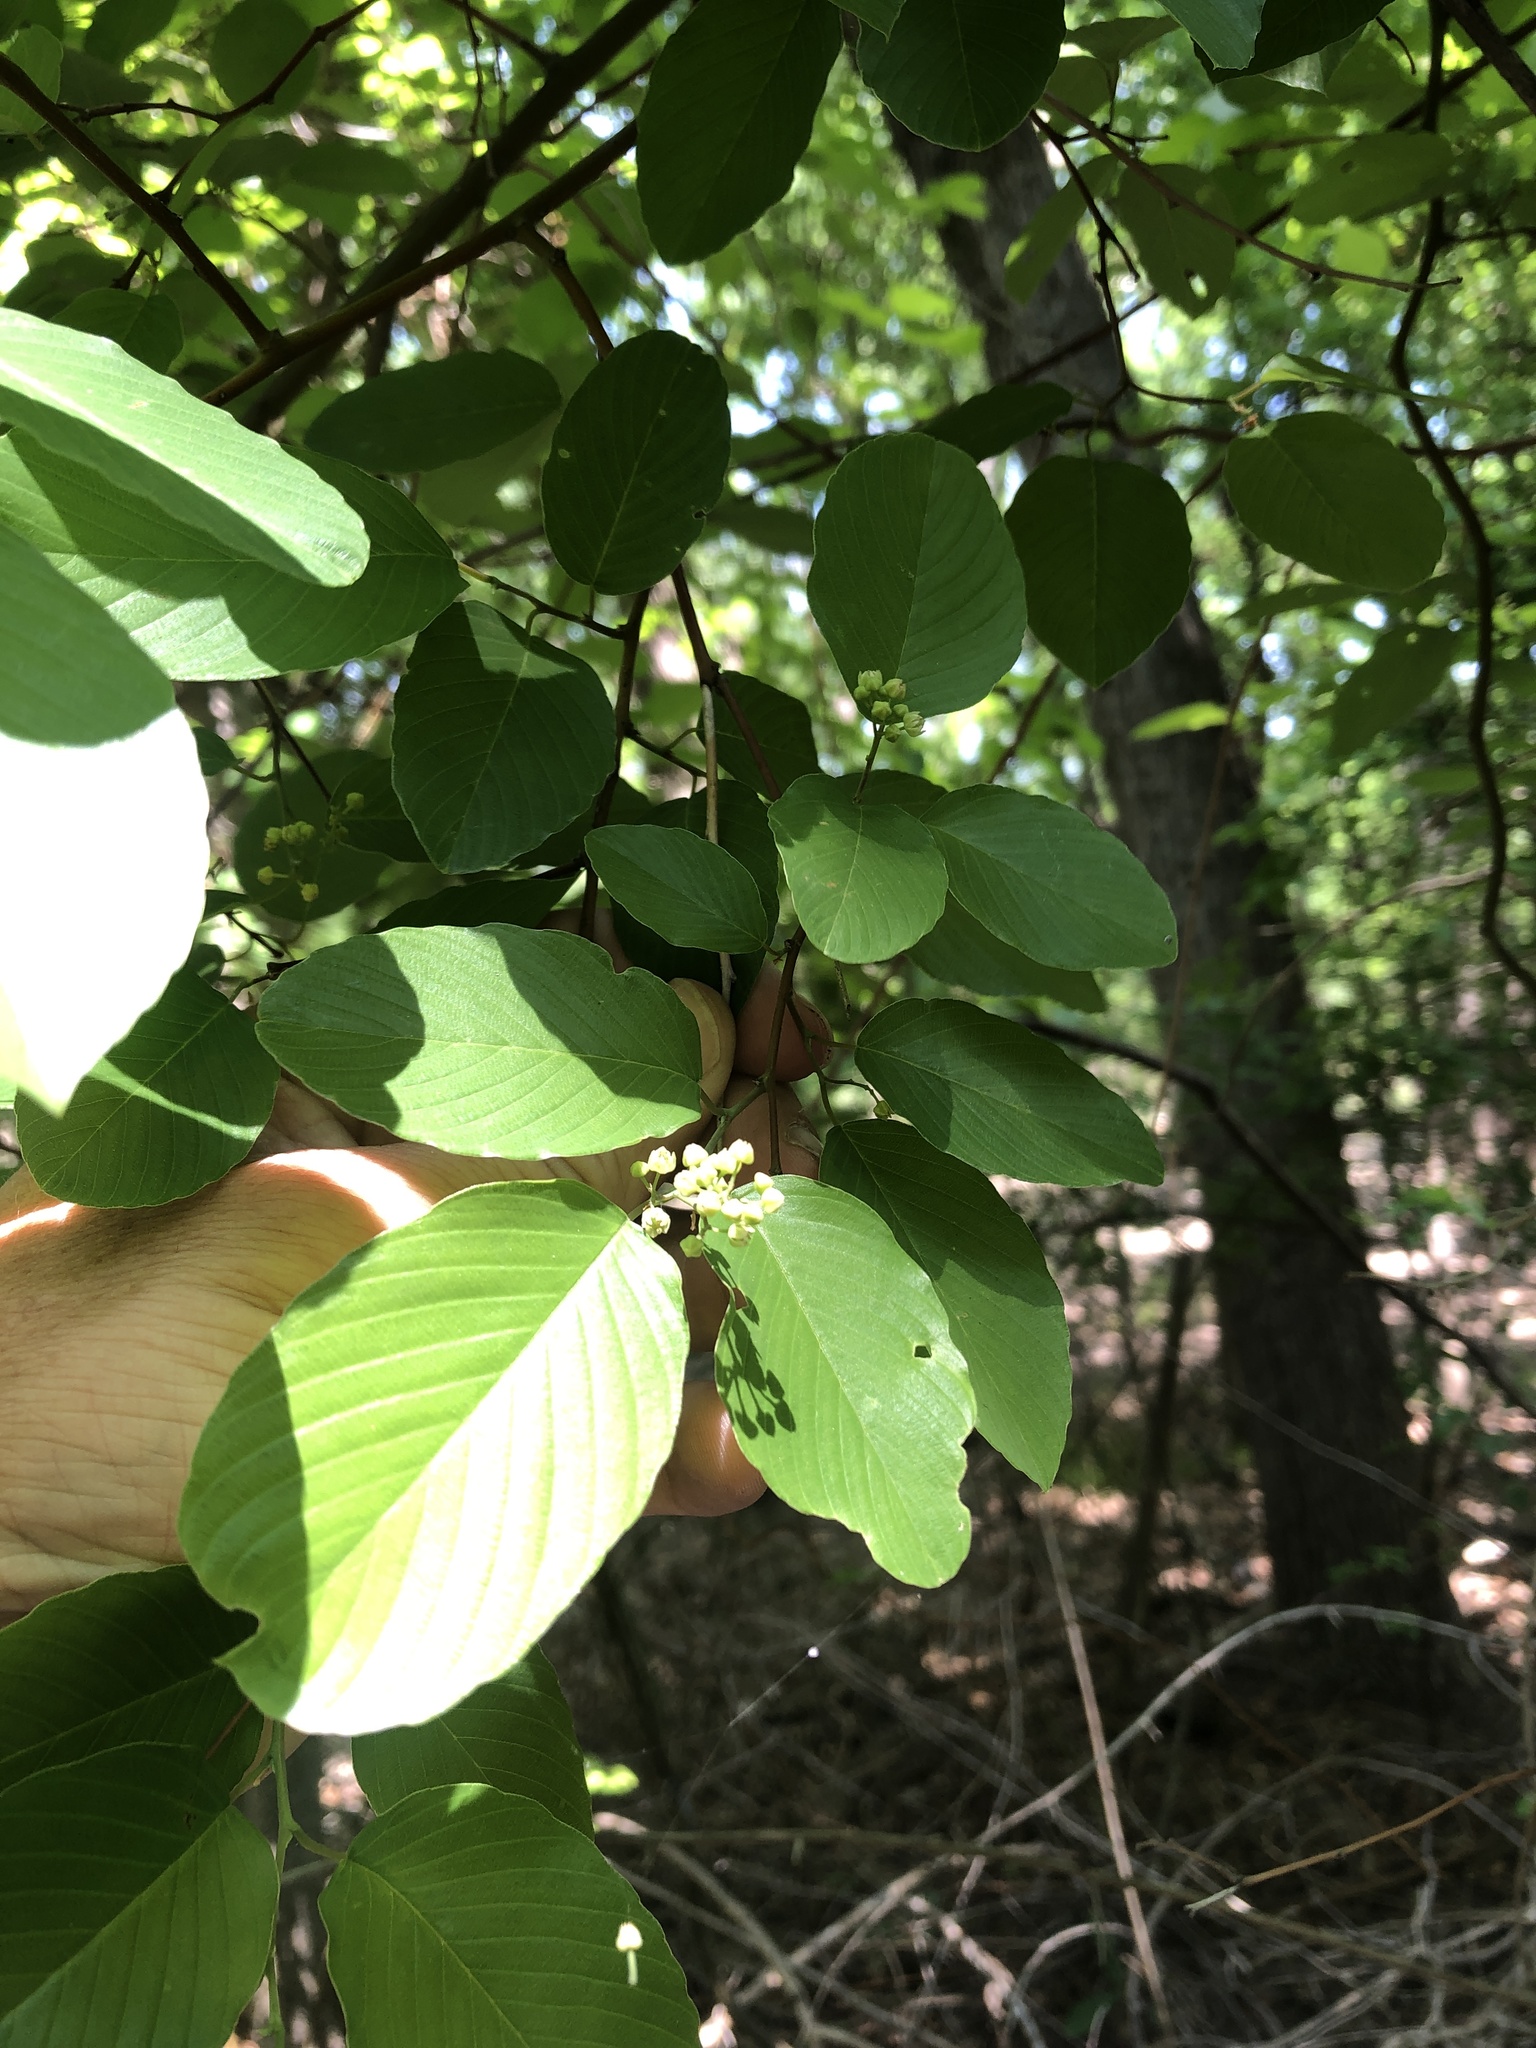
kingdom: Plantae
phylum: Tracheophyta
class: Magnoliopsida
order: Rosales
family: Rhamnaceae
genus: Berchemia
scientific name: Berchemia scandens
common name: Supplejack
